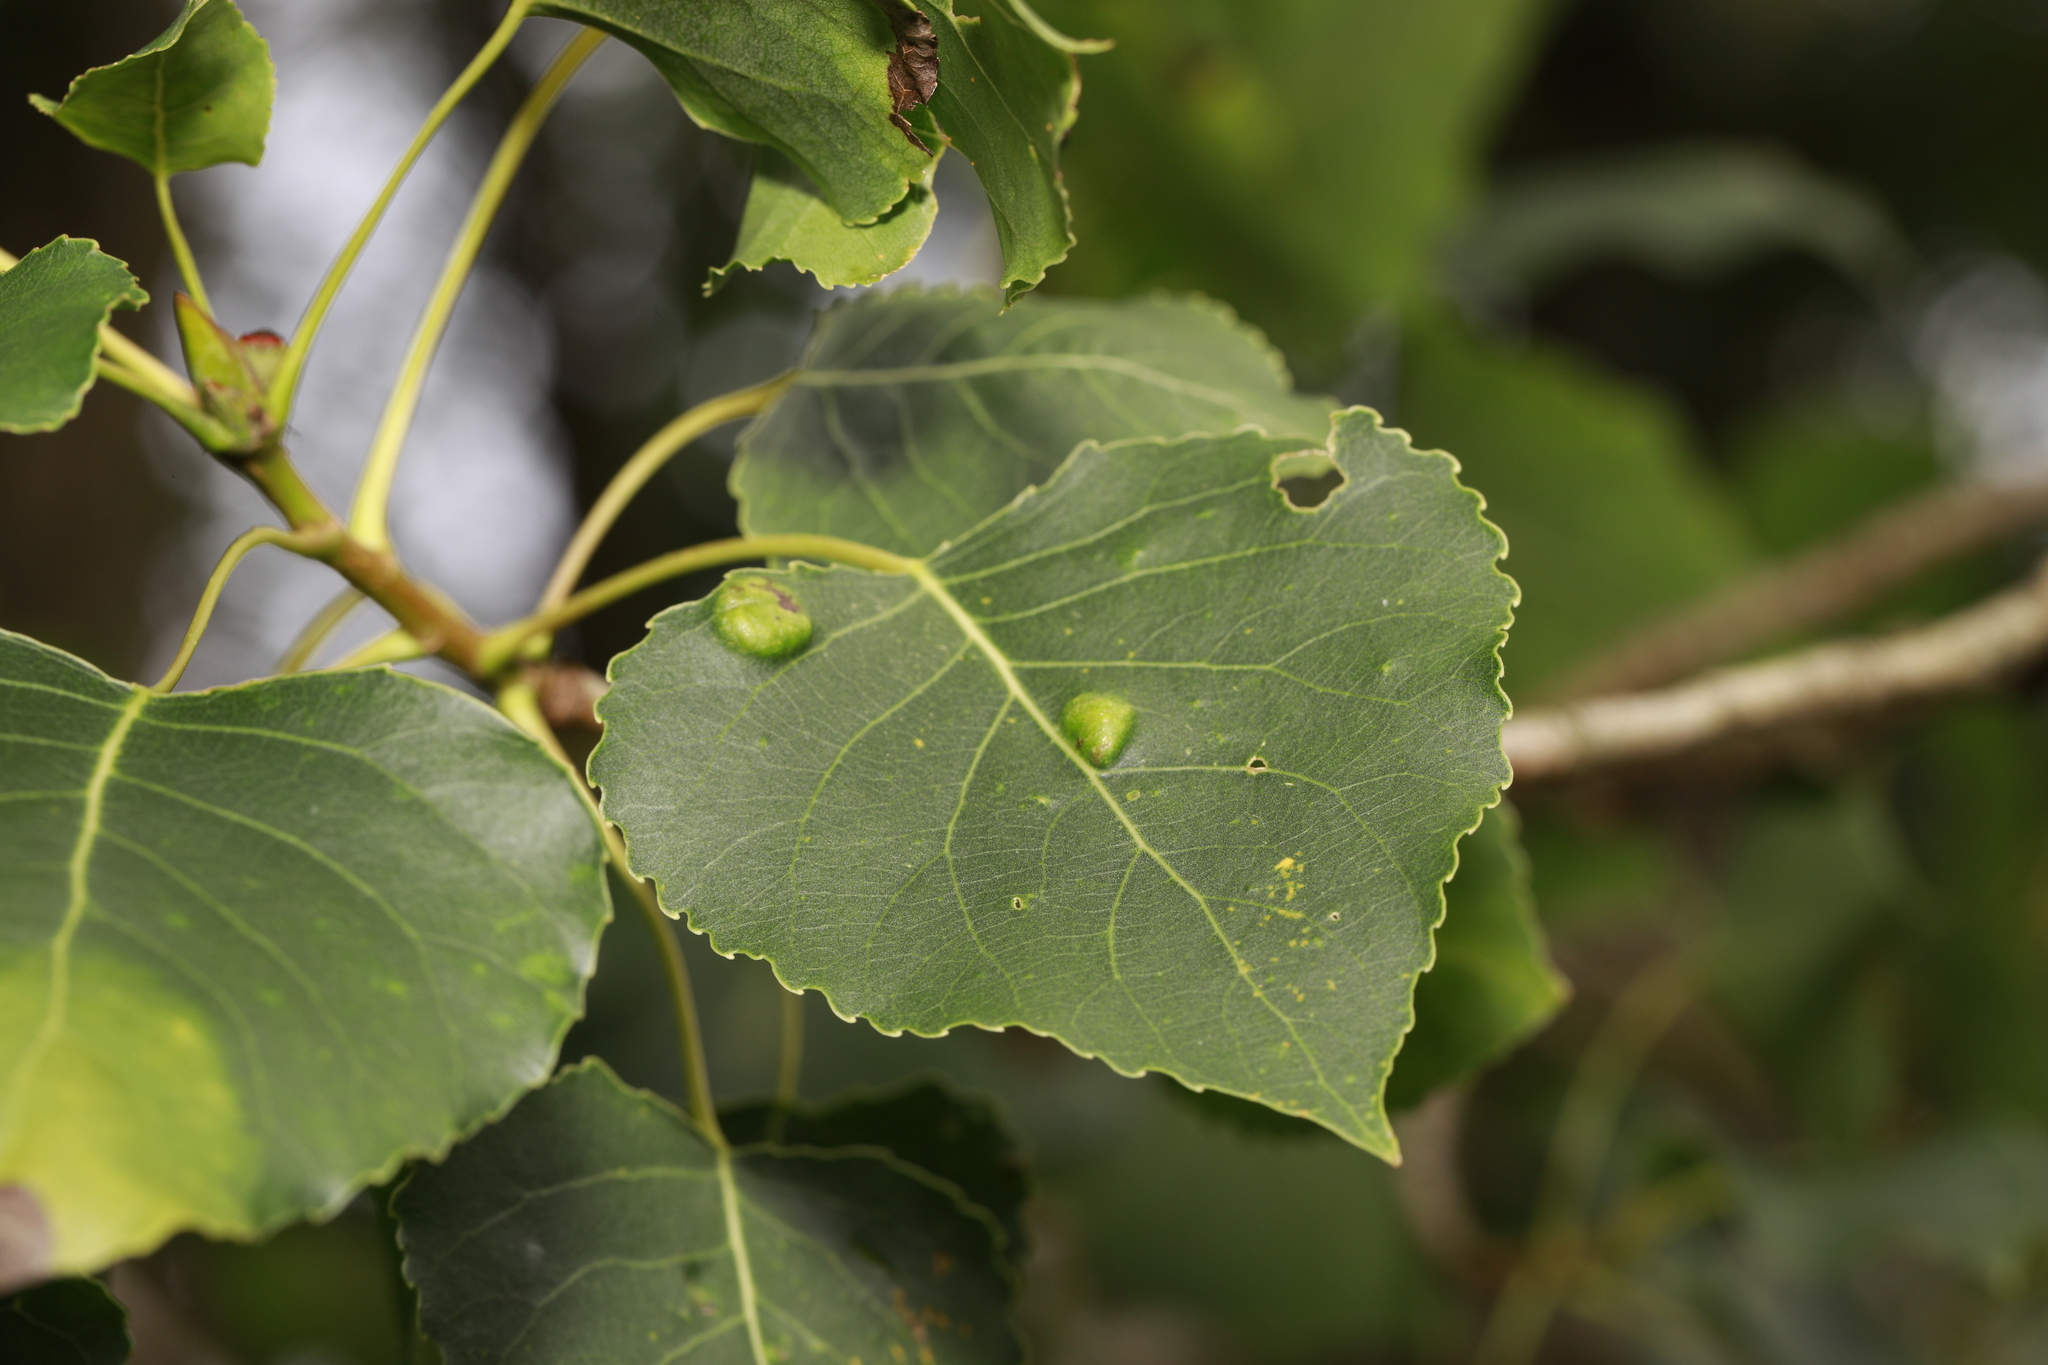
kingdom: Fungi
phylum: Ascomycota
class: Taphrinomycetes
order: Taphrinales
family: Taphrinaceae
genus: Taphrina
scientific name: Taphrina populina
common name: Poplar leaf curl
